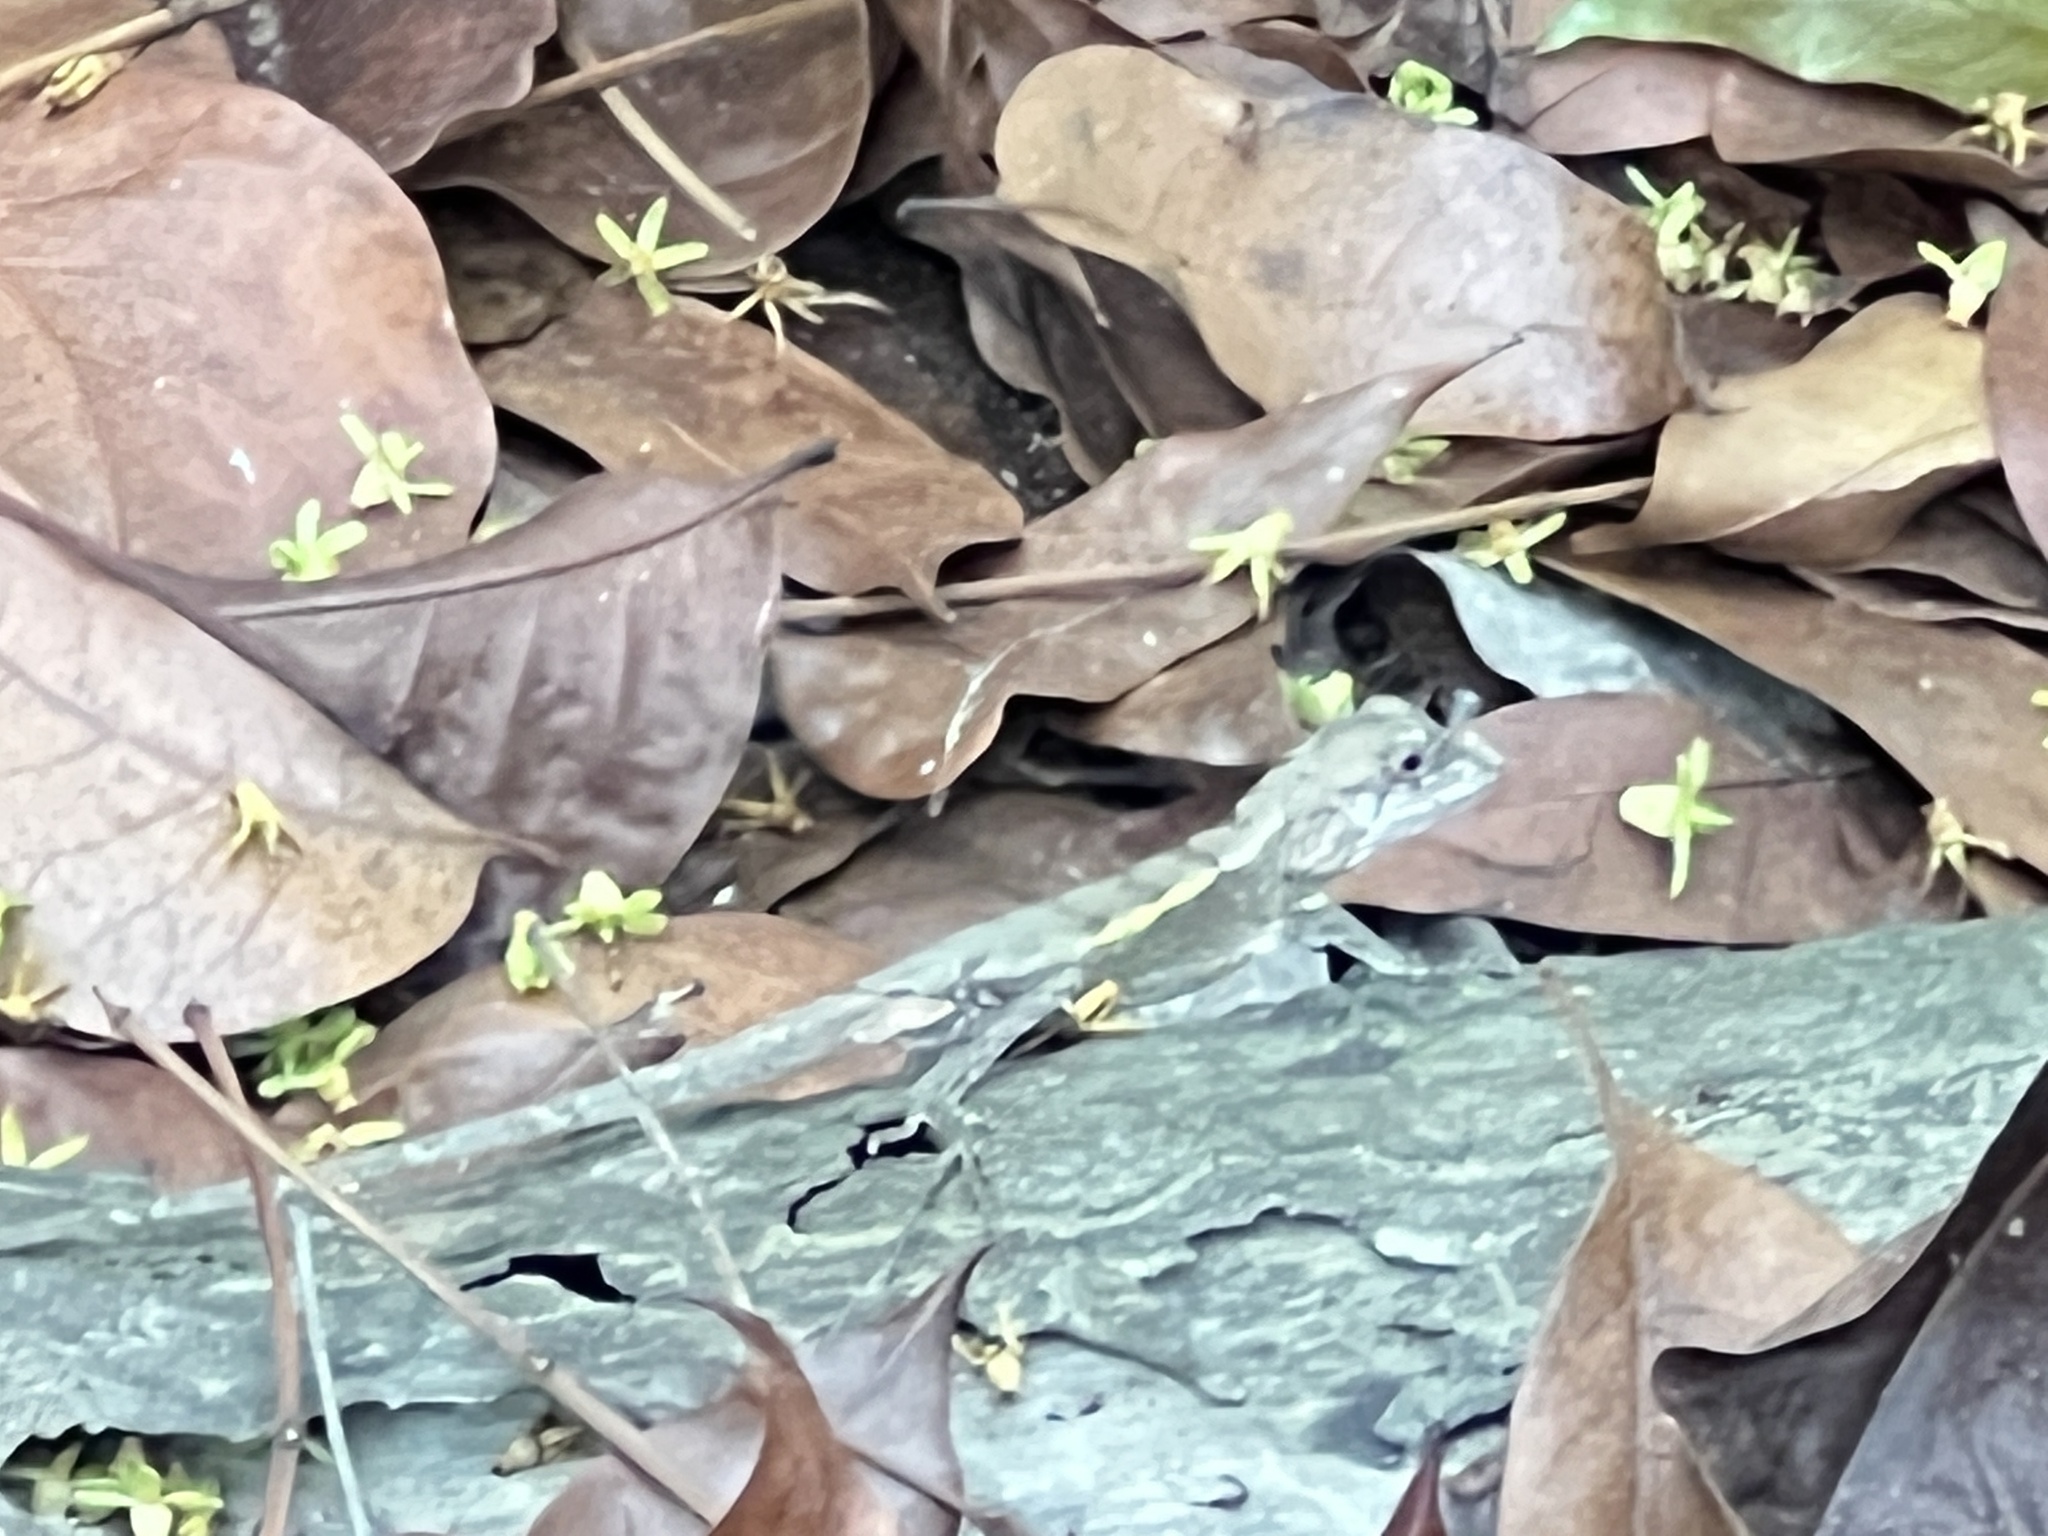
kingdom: Animalia
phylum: Chordata
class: Squamata
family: Agamidae
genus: Diploderma
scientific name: Diploderma swinhonis
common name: Taiwan japalure
